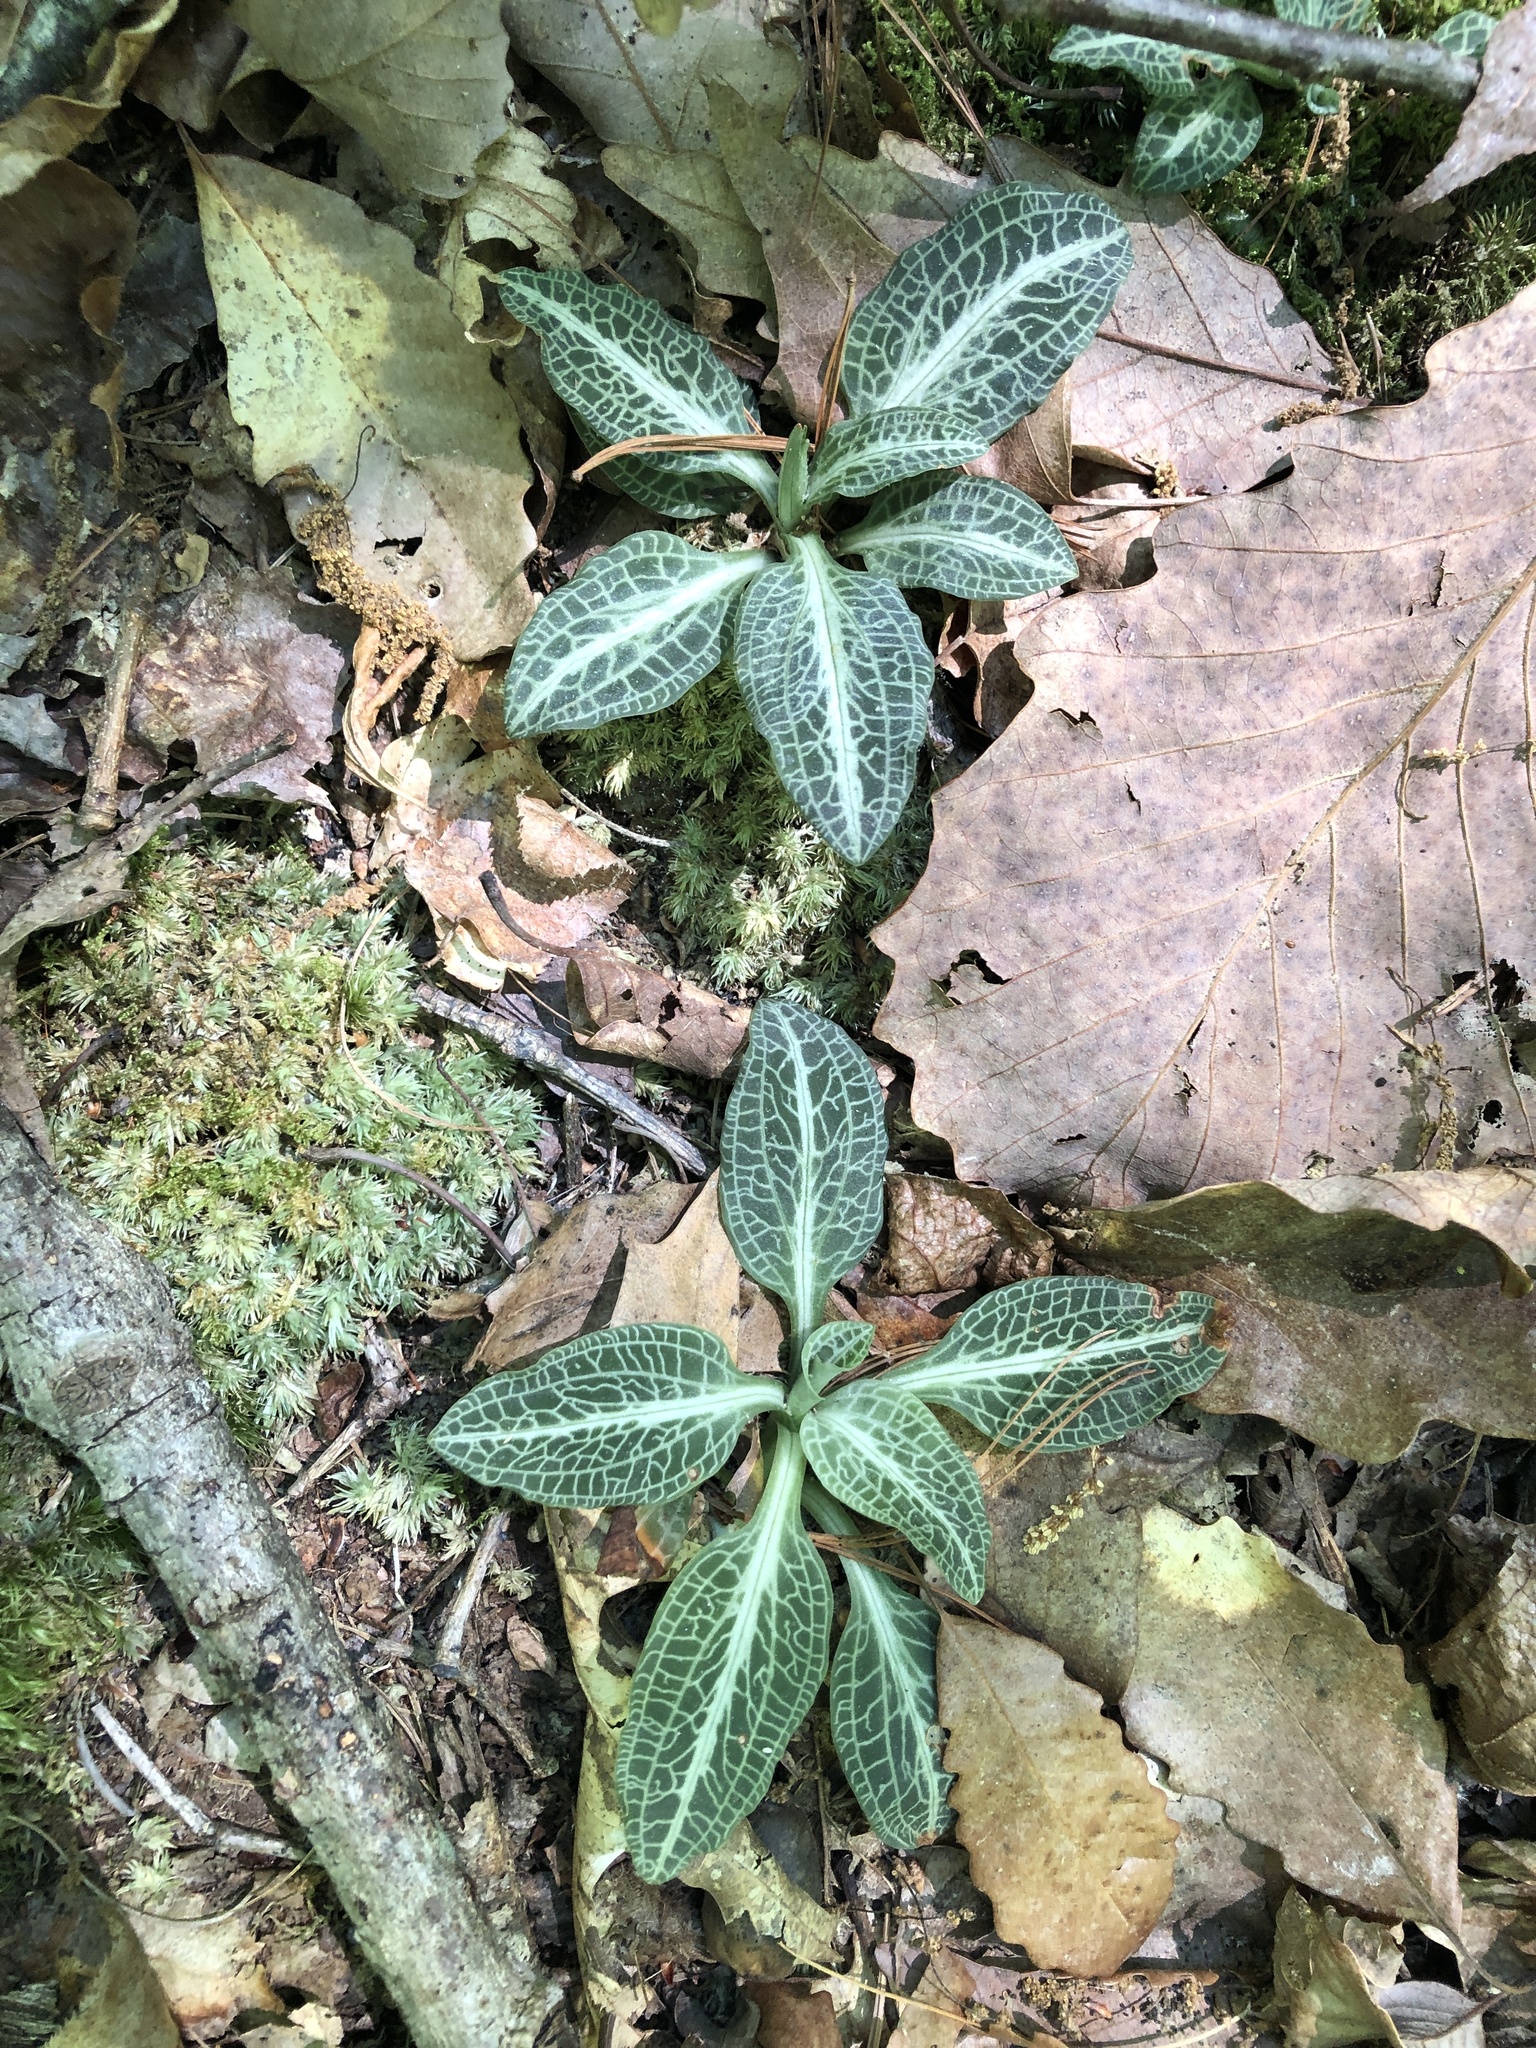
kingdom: Plantae
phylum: Tracheophyta
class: Liliopsida
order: Asparagales
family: Orchidaceae
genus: Goodyera
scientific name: Goodyera pubescens
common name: Downy rattlesnake-plantain
